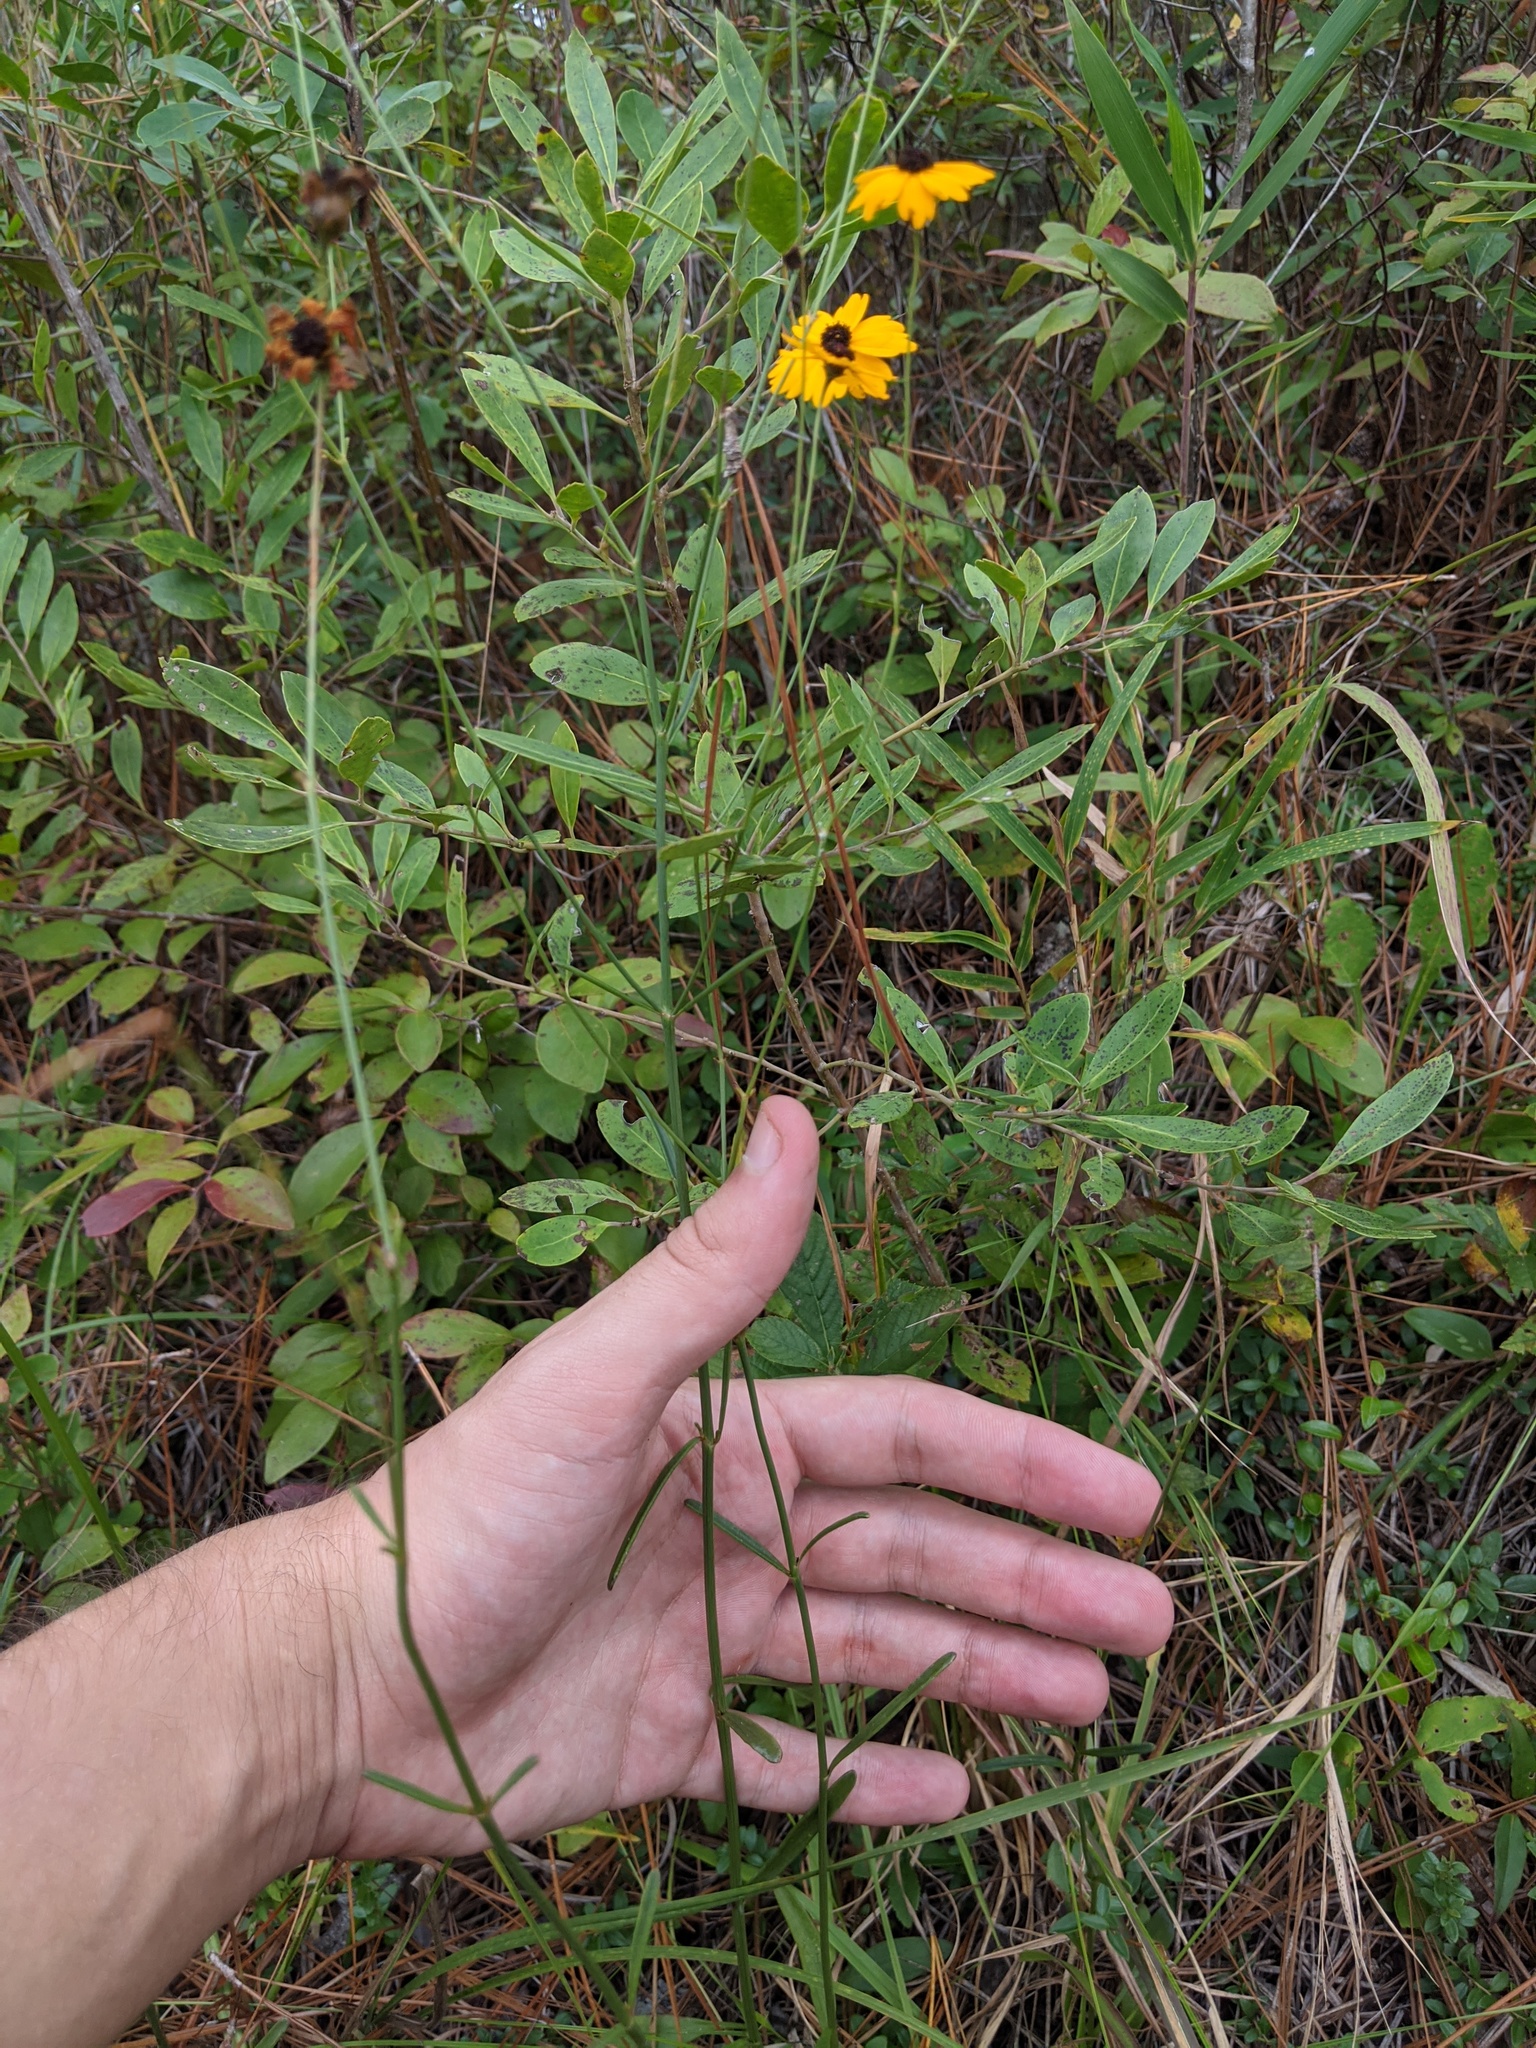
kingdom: Plantae
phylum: Tracheophyta
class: Magnoliopsida
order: Asterales
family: Asteraceae
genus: Coreopsis
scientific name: Coreopsis gladiata
